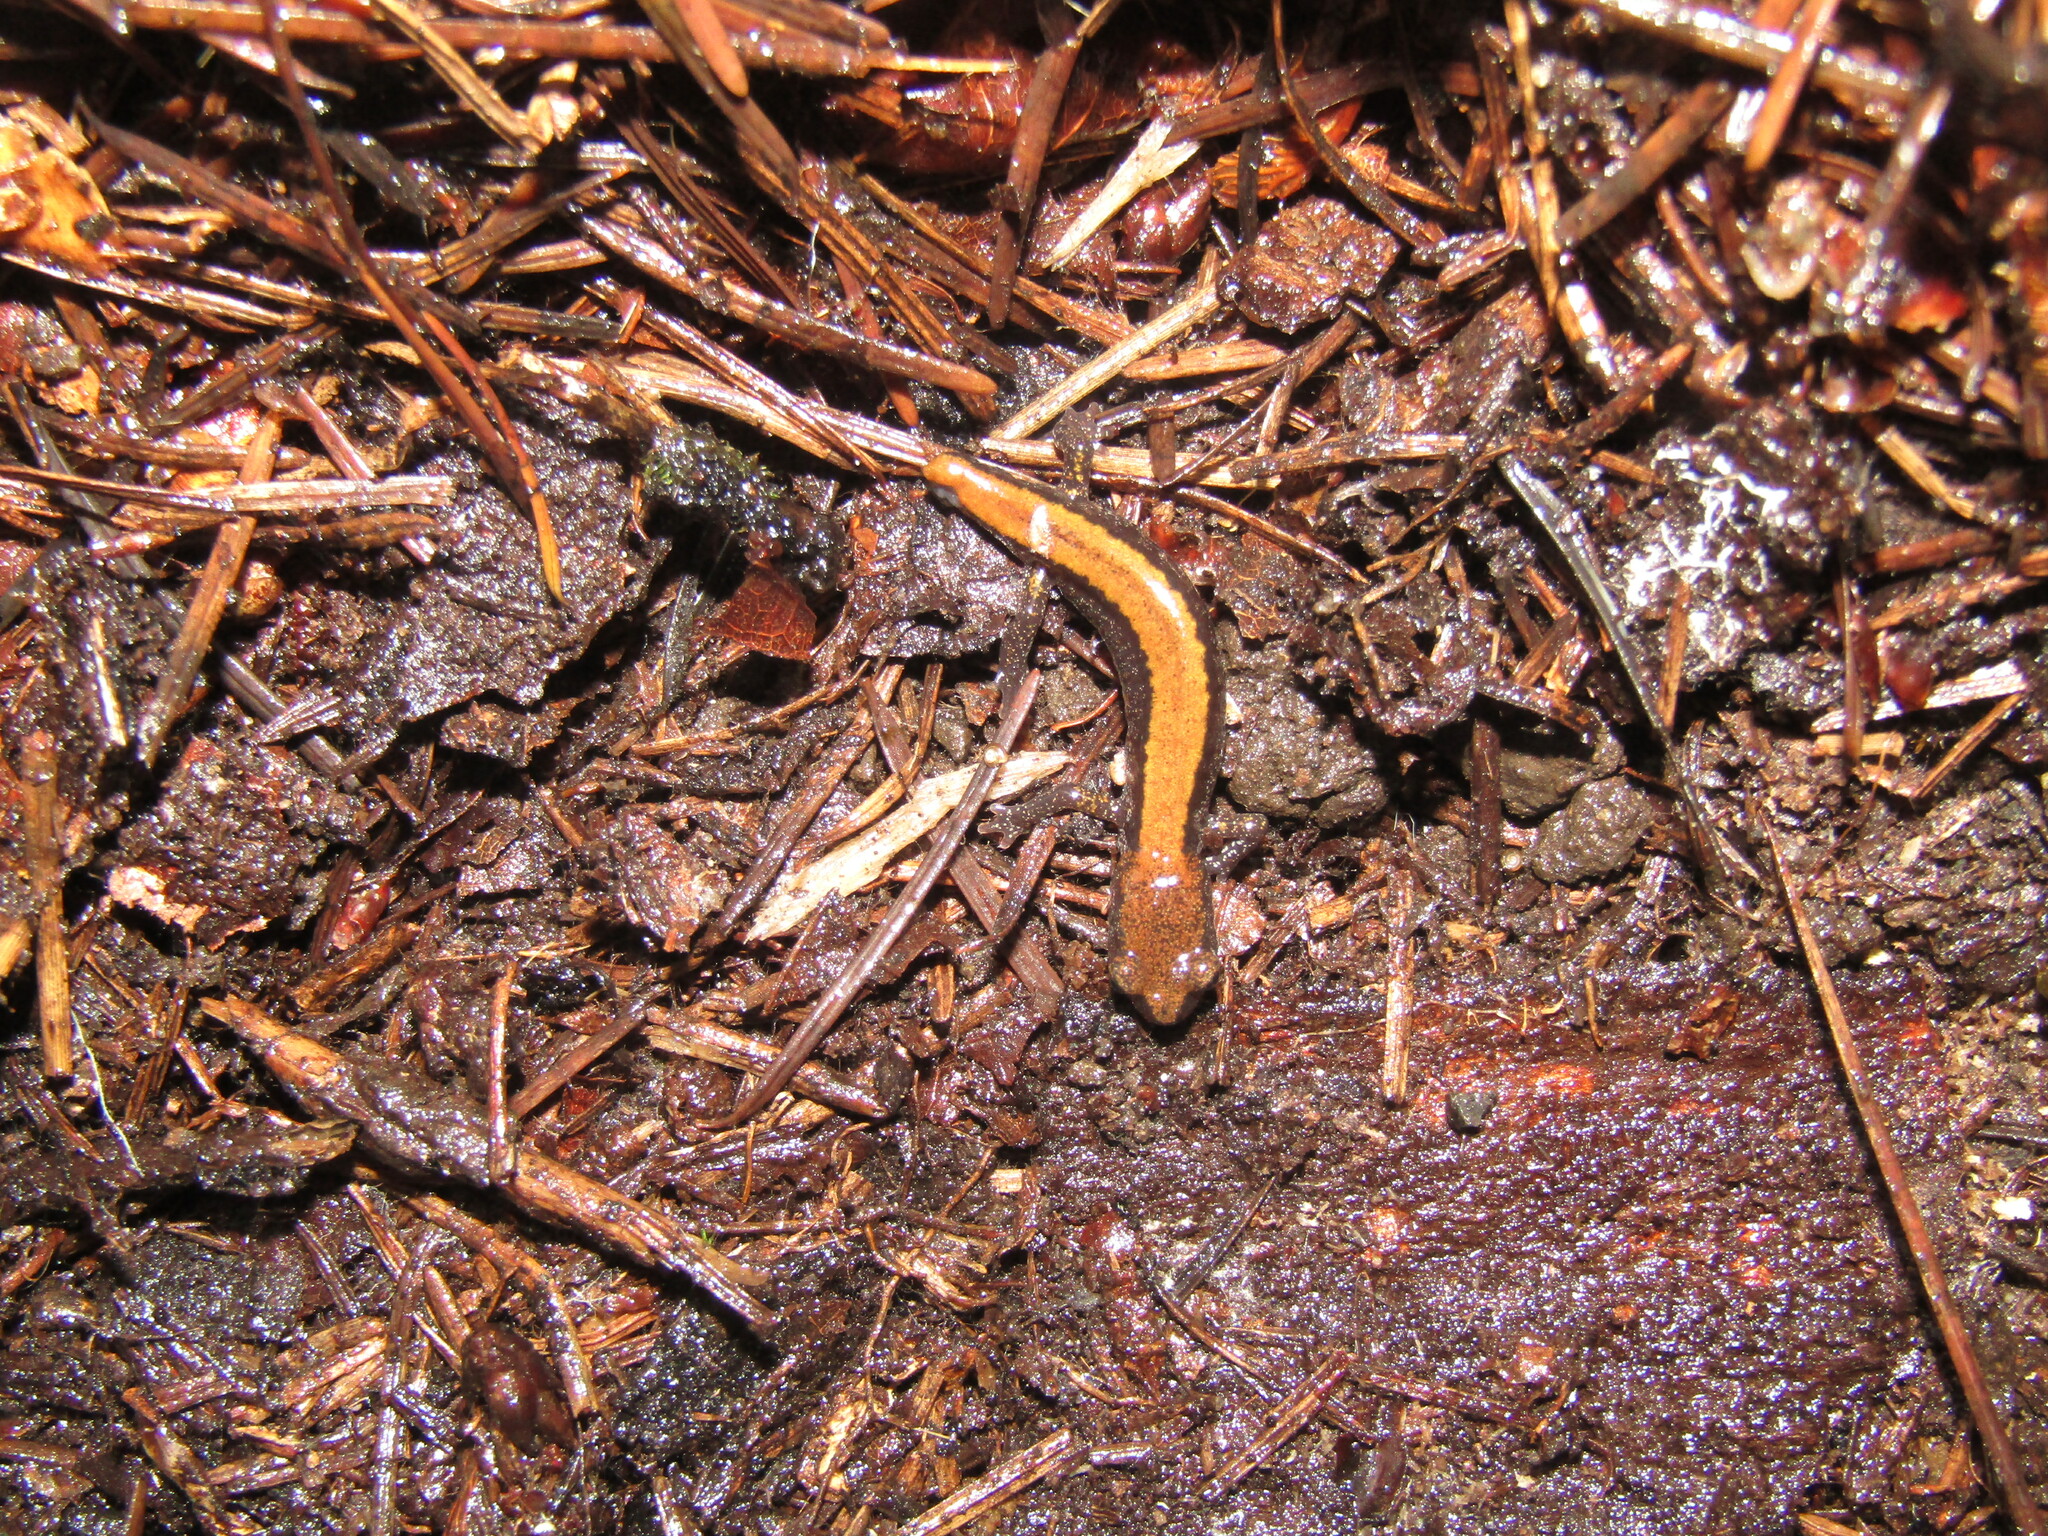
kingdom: Animalia
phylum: Chordata
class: Amphibia
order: Caudata
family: Plethodontidae
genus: Plethodon
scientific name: Plethodon larselli
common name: Larch mountain salamander
